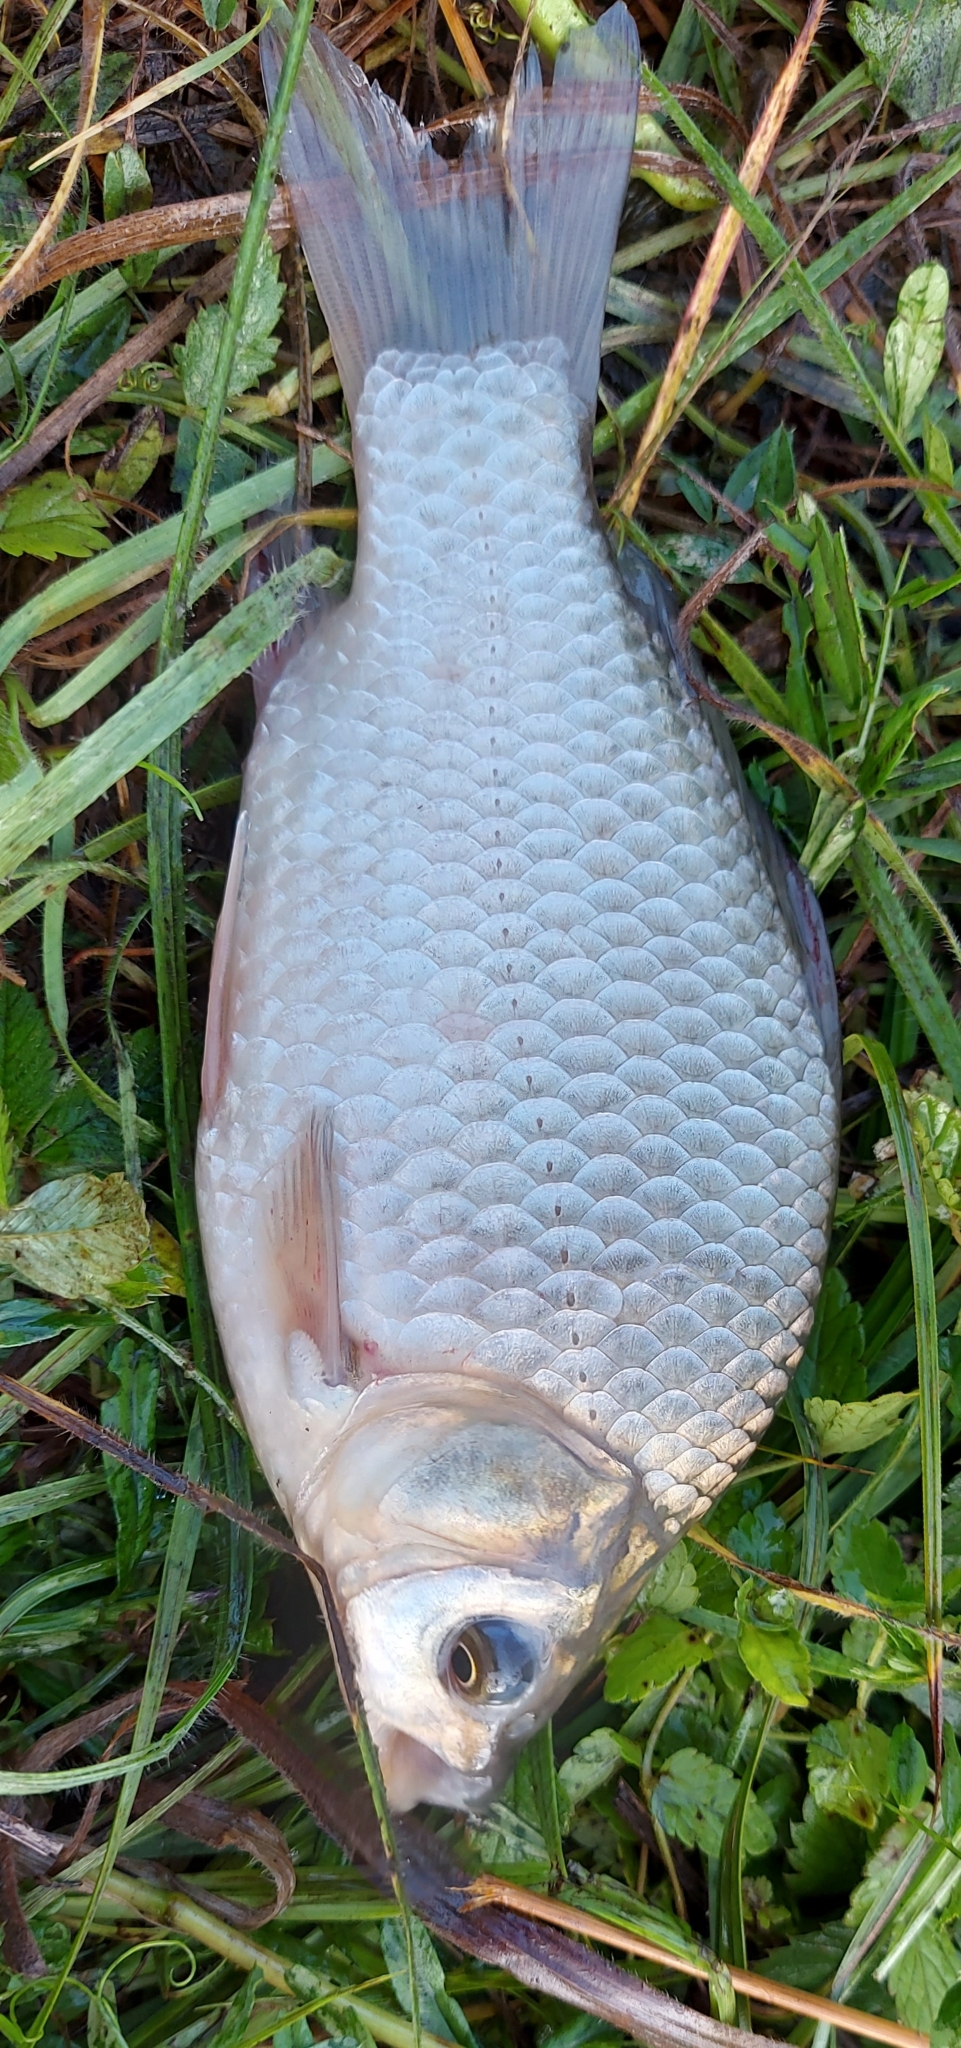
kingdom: Animalia
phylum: Chordata
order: Cypriniformes
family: Cyprinidae
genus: Carassius
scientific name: Carassius gibelio
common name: Prussian carp
